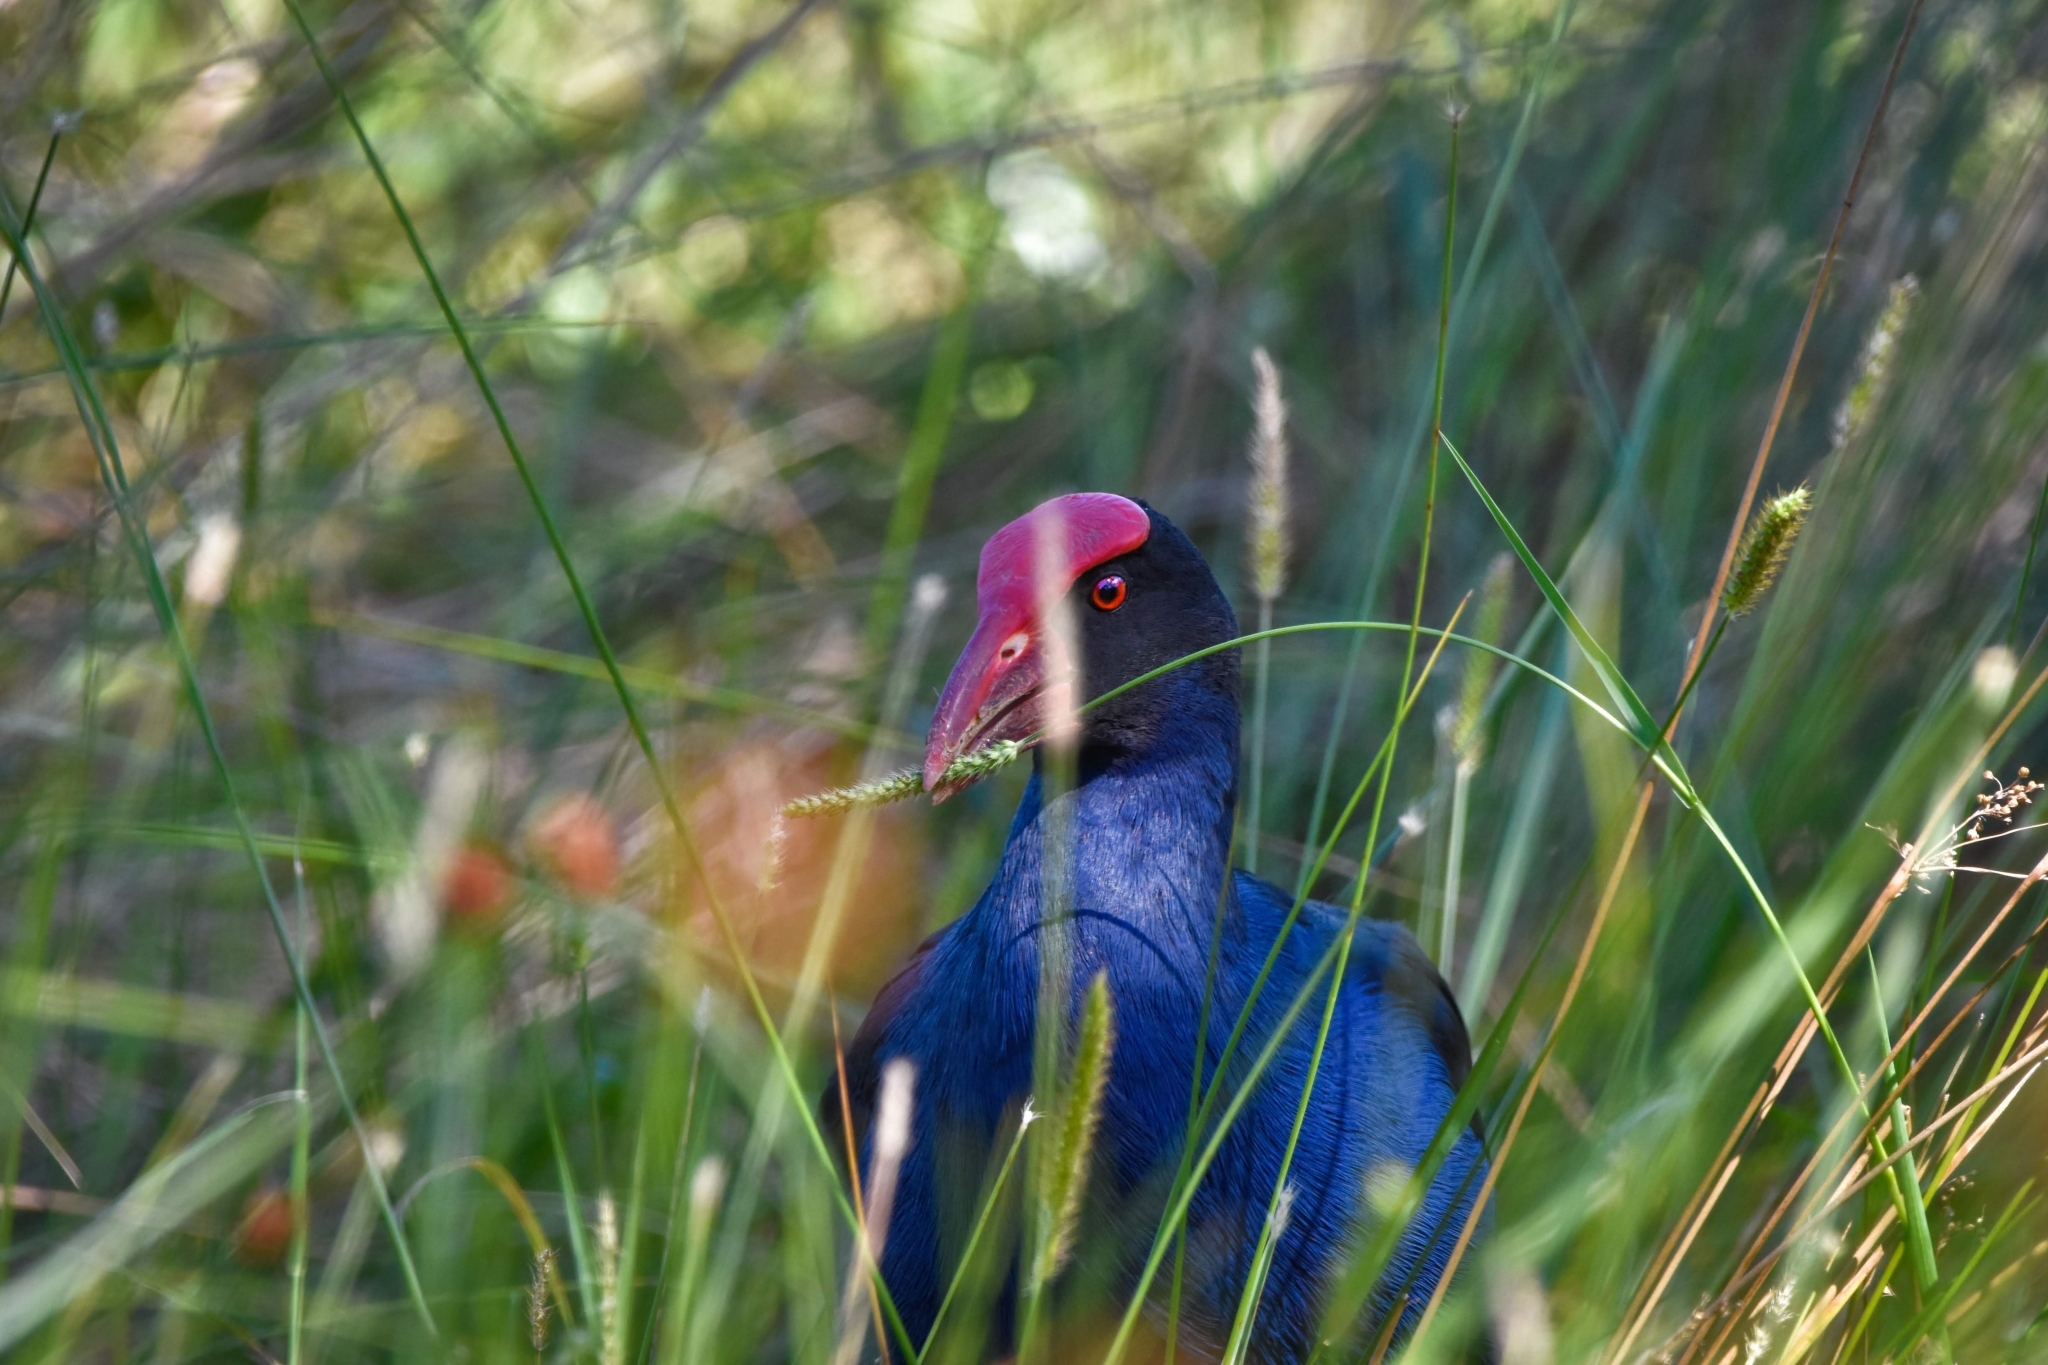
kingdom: Animalia
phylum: Chordata
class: Aves
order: Gruiformes
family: Rallidae
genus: Porphyrio
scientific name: Porphyrio melanotus
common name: Australasian swamphen
